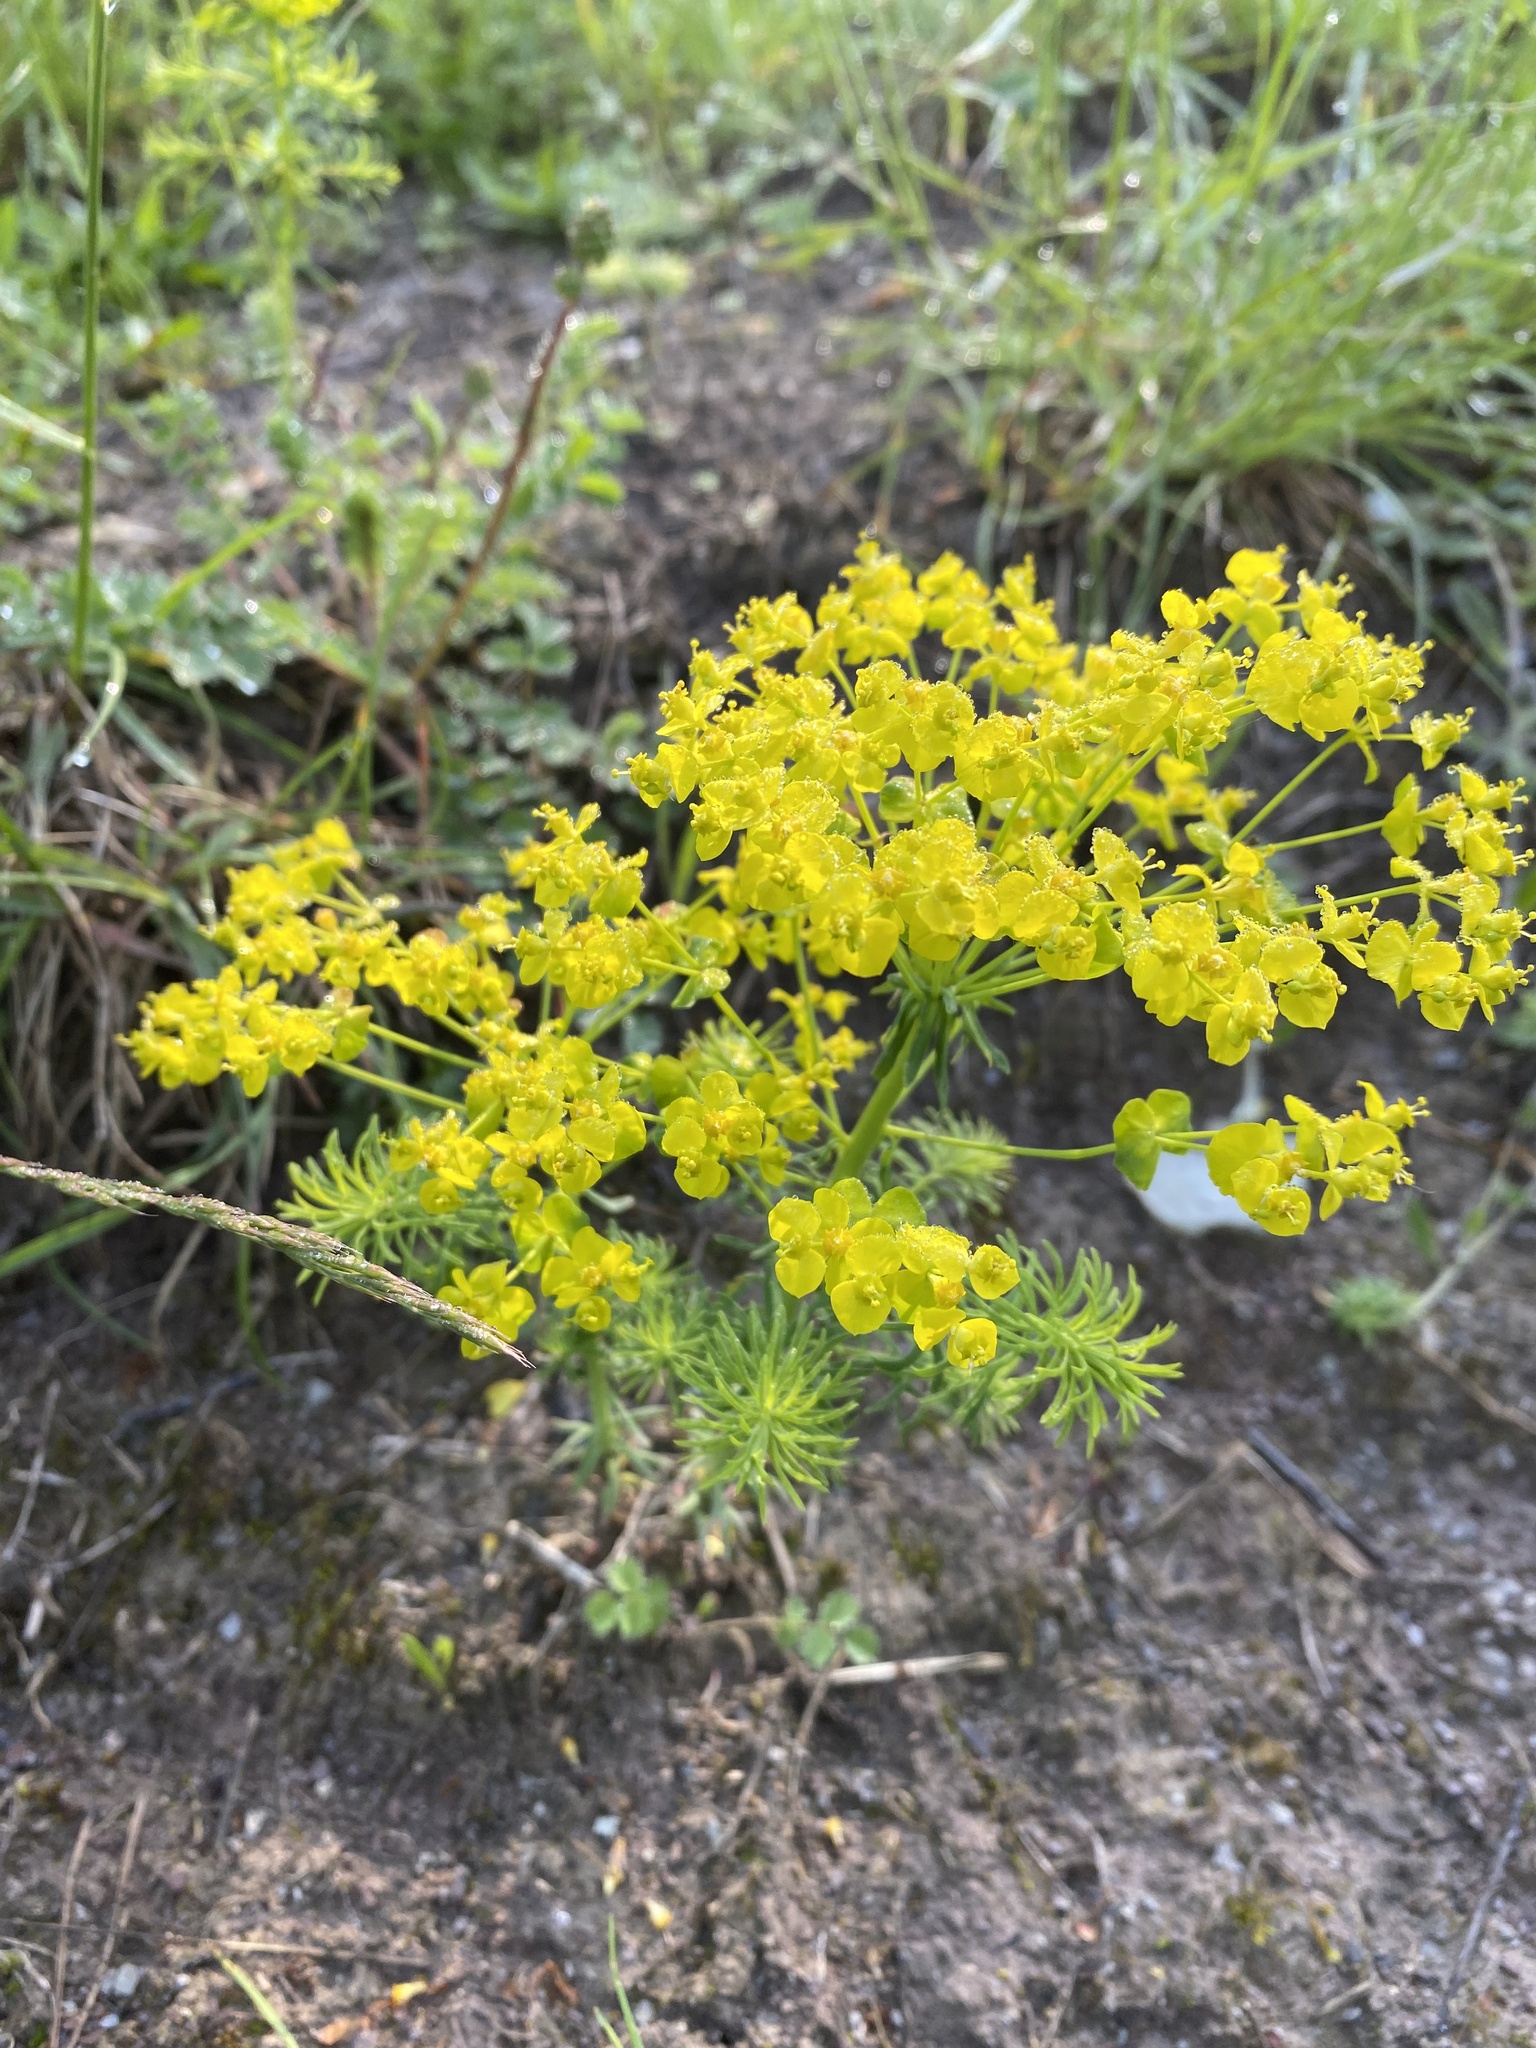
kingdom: Plantae
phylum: Tracheophyta
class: Magnoliopsida
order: Malpighiales
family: Euphorbiaceae
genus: Euphorbia
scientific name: Euphorbia cyparissias
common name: Cypress spurge
